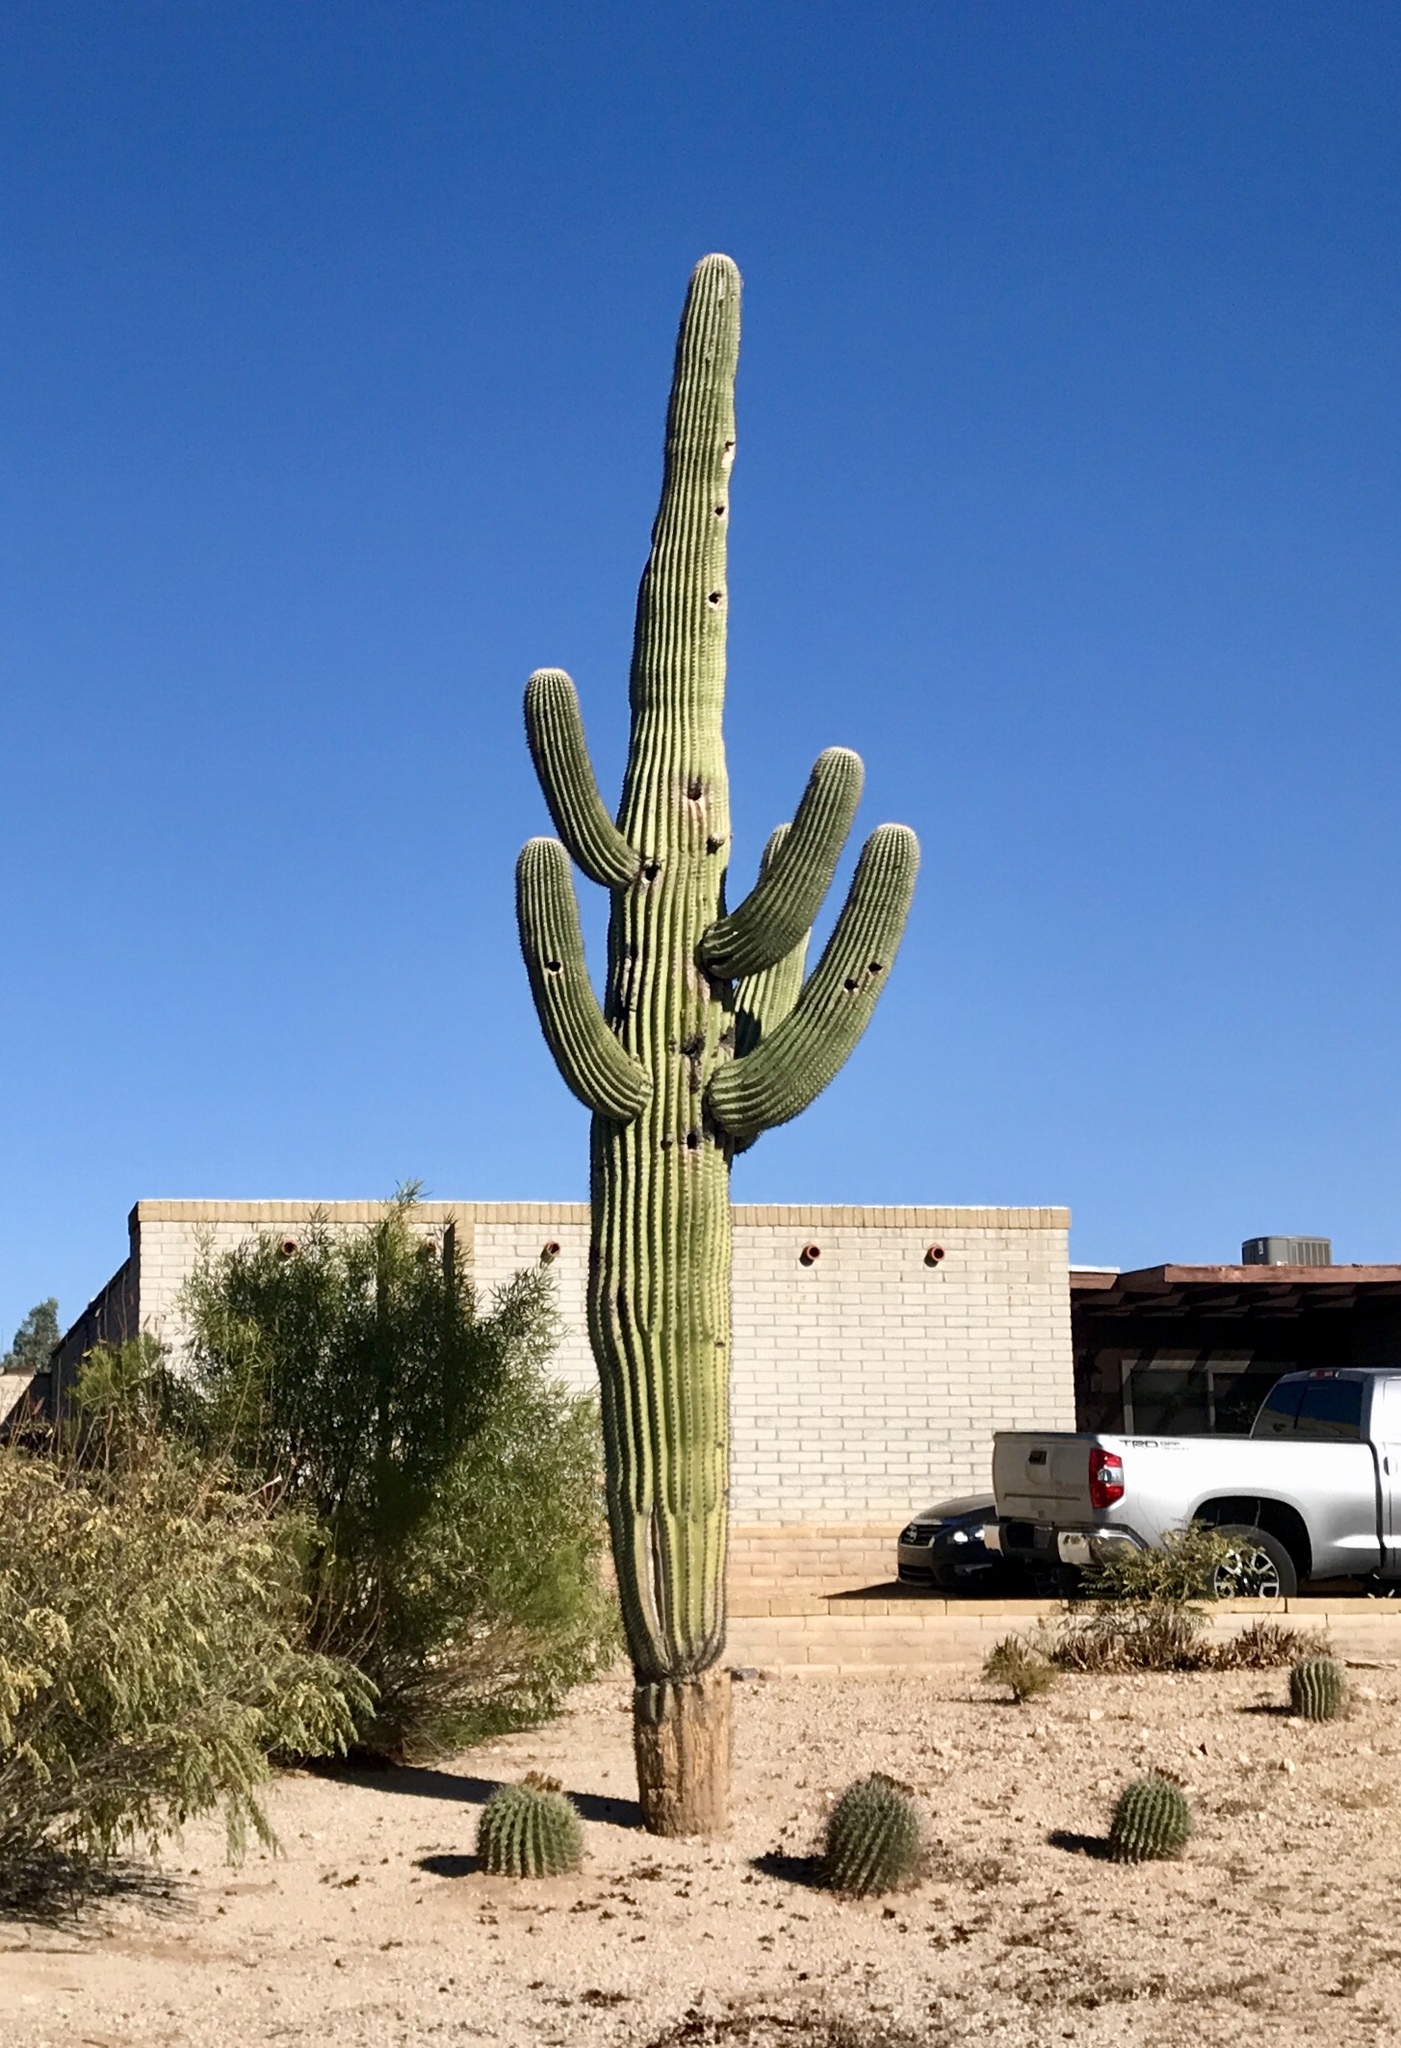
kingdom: Plantae
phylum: Tracheophyta
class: Magnoliopsida
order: Caryophyllales
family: Cactaceae
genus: Carnegiea
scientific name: Carnegiea gigantea
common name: Saguaro
